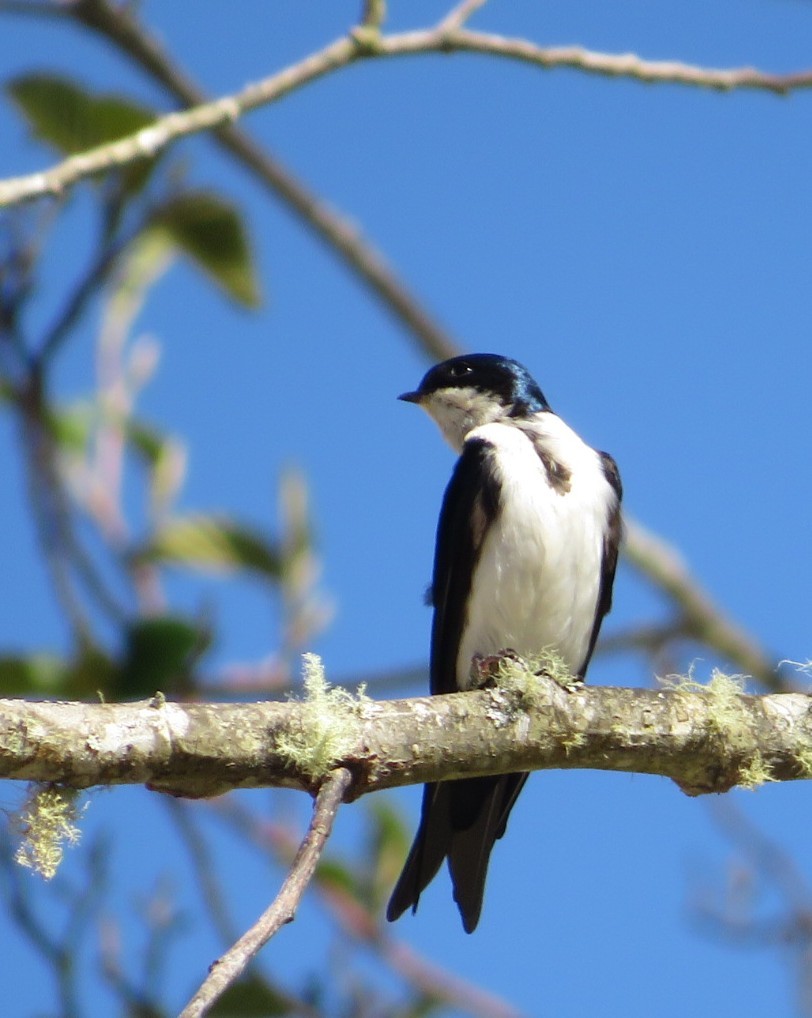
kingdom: Animalia
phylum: Chordata
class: Aves
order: Passeriformes
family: Hirundinidae
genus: Notiochelidon
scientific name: Notiochelidon cyanoleuca
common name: Blue-and-white swallow
